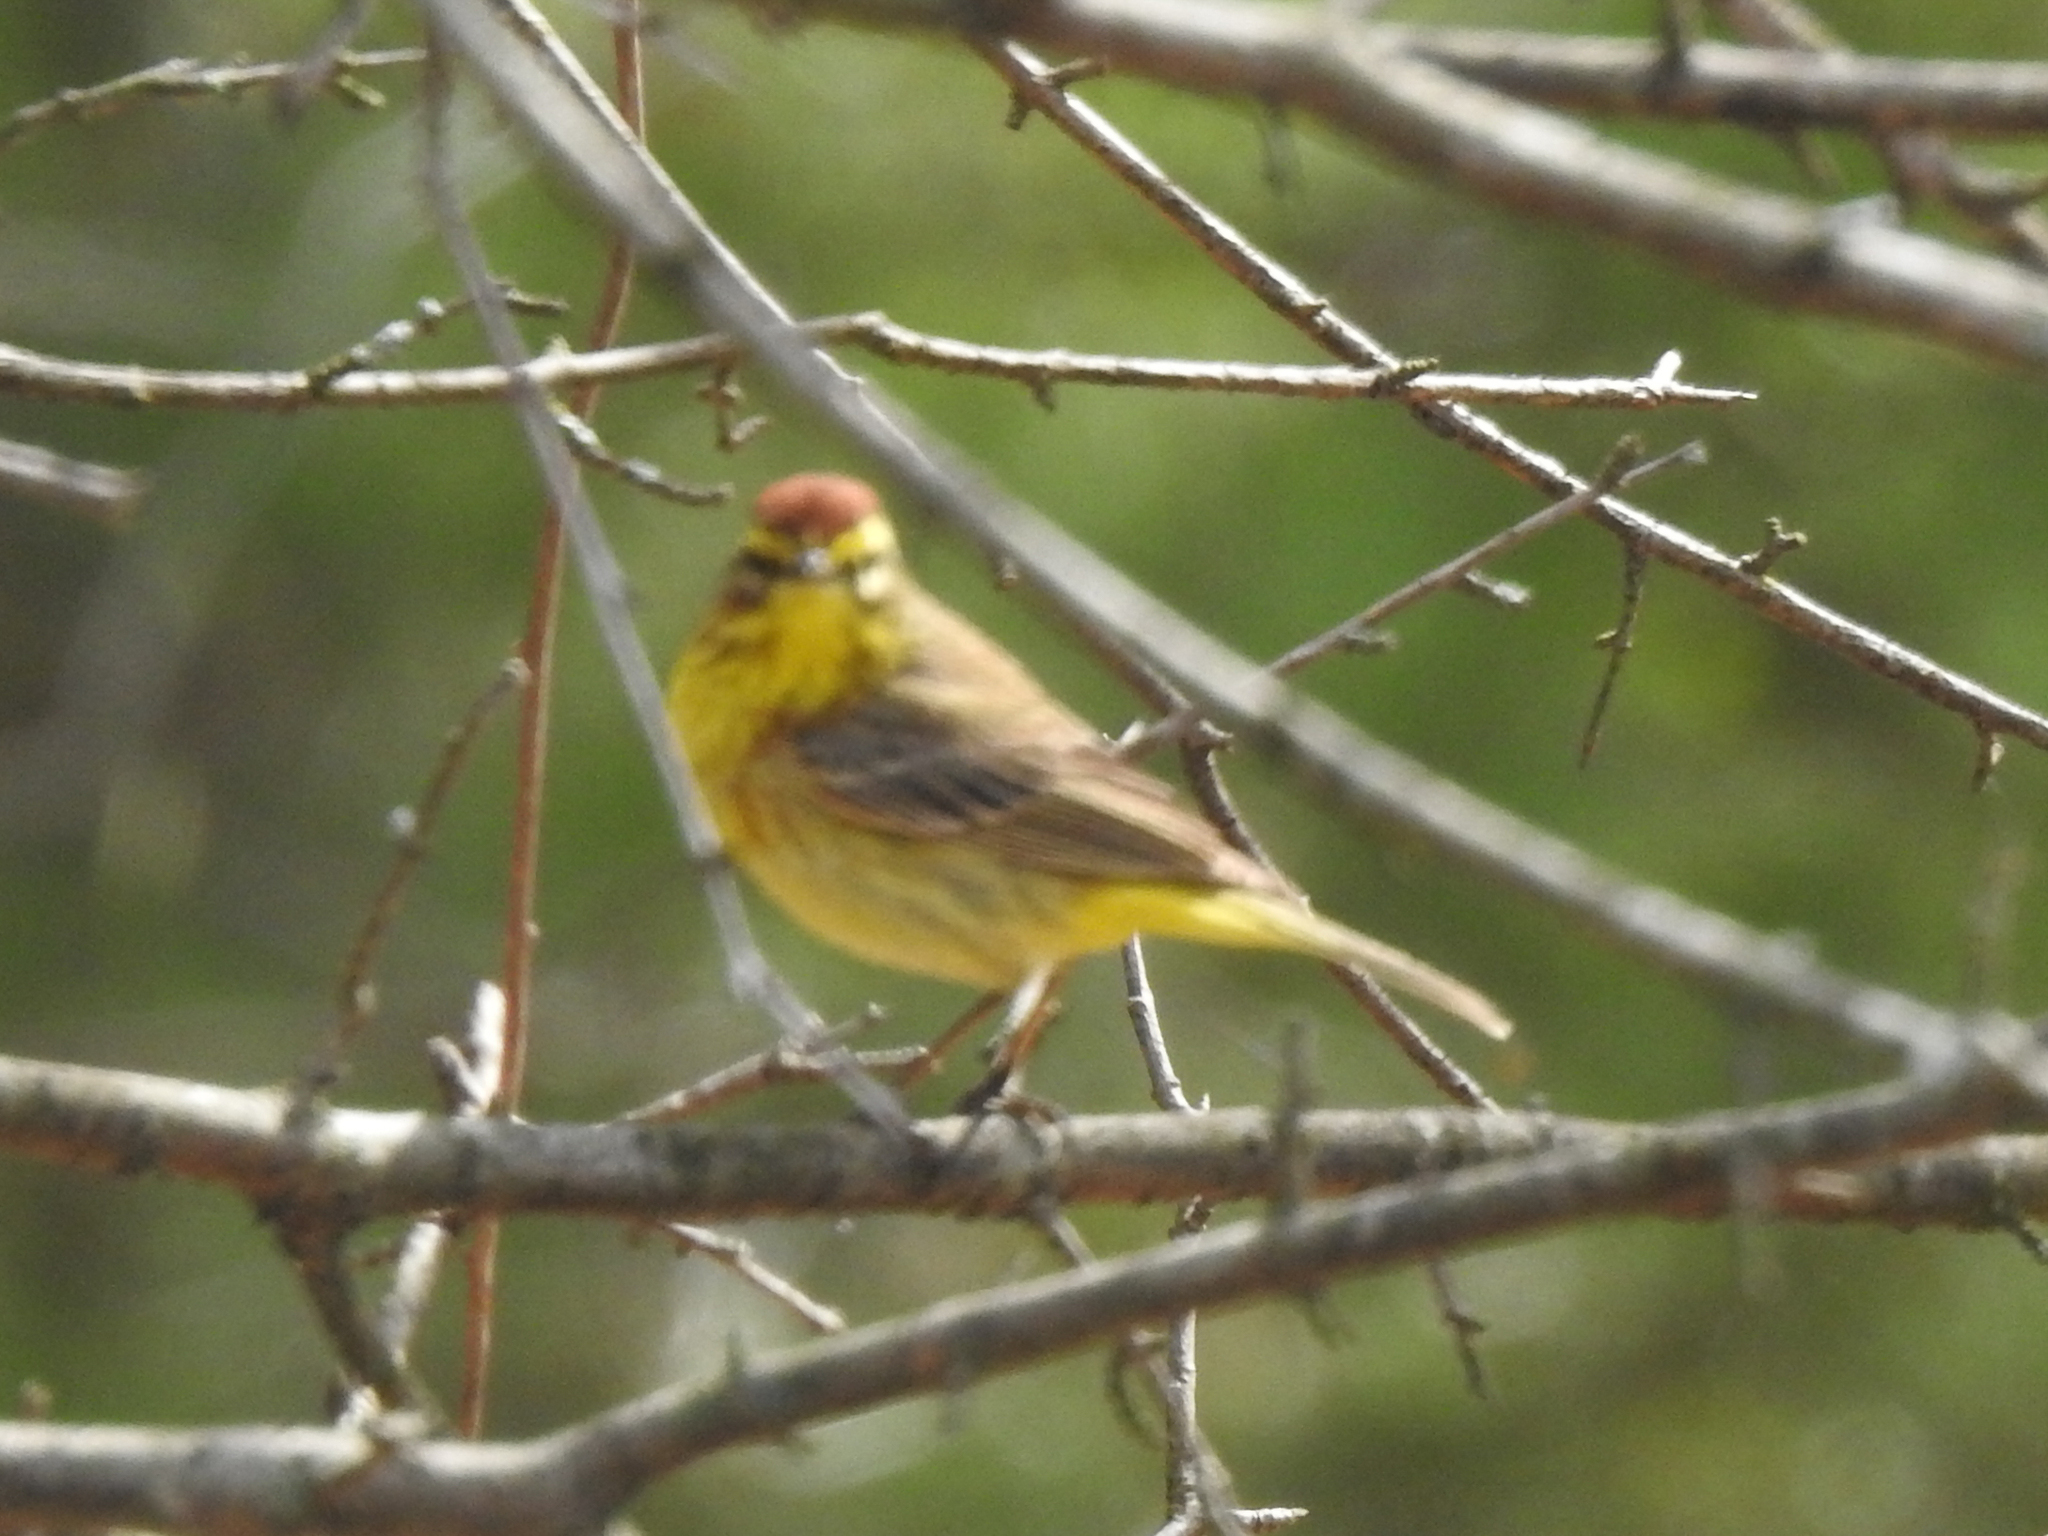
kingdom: Animalia
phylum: Chordata
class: Aves
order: Passeriformes
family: Parulidae
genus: Setophaga
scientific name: Setophaga palmarum
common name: Palm warbler
